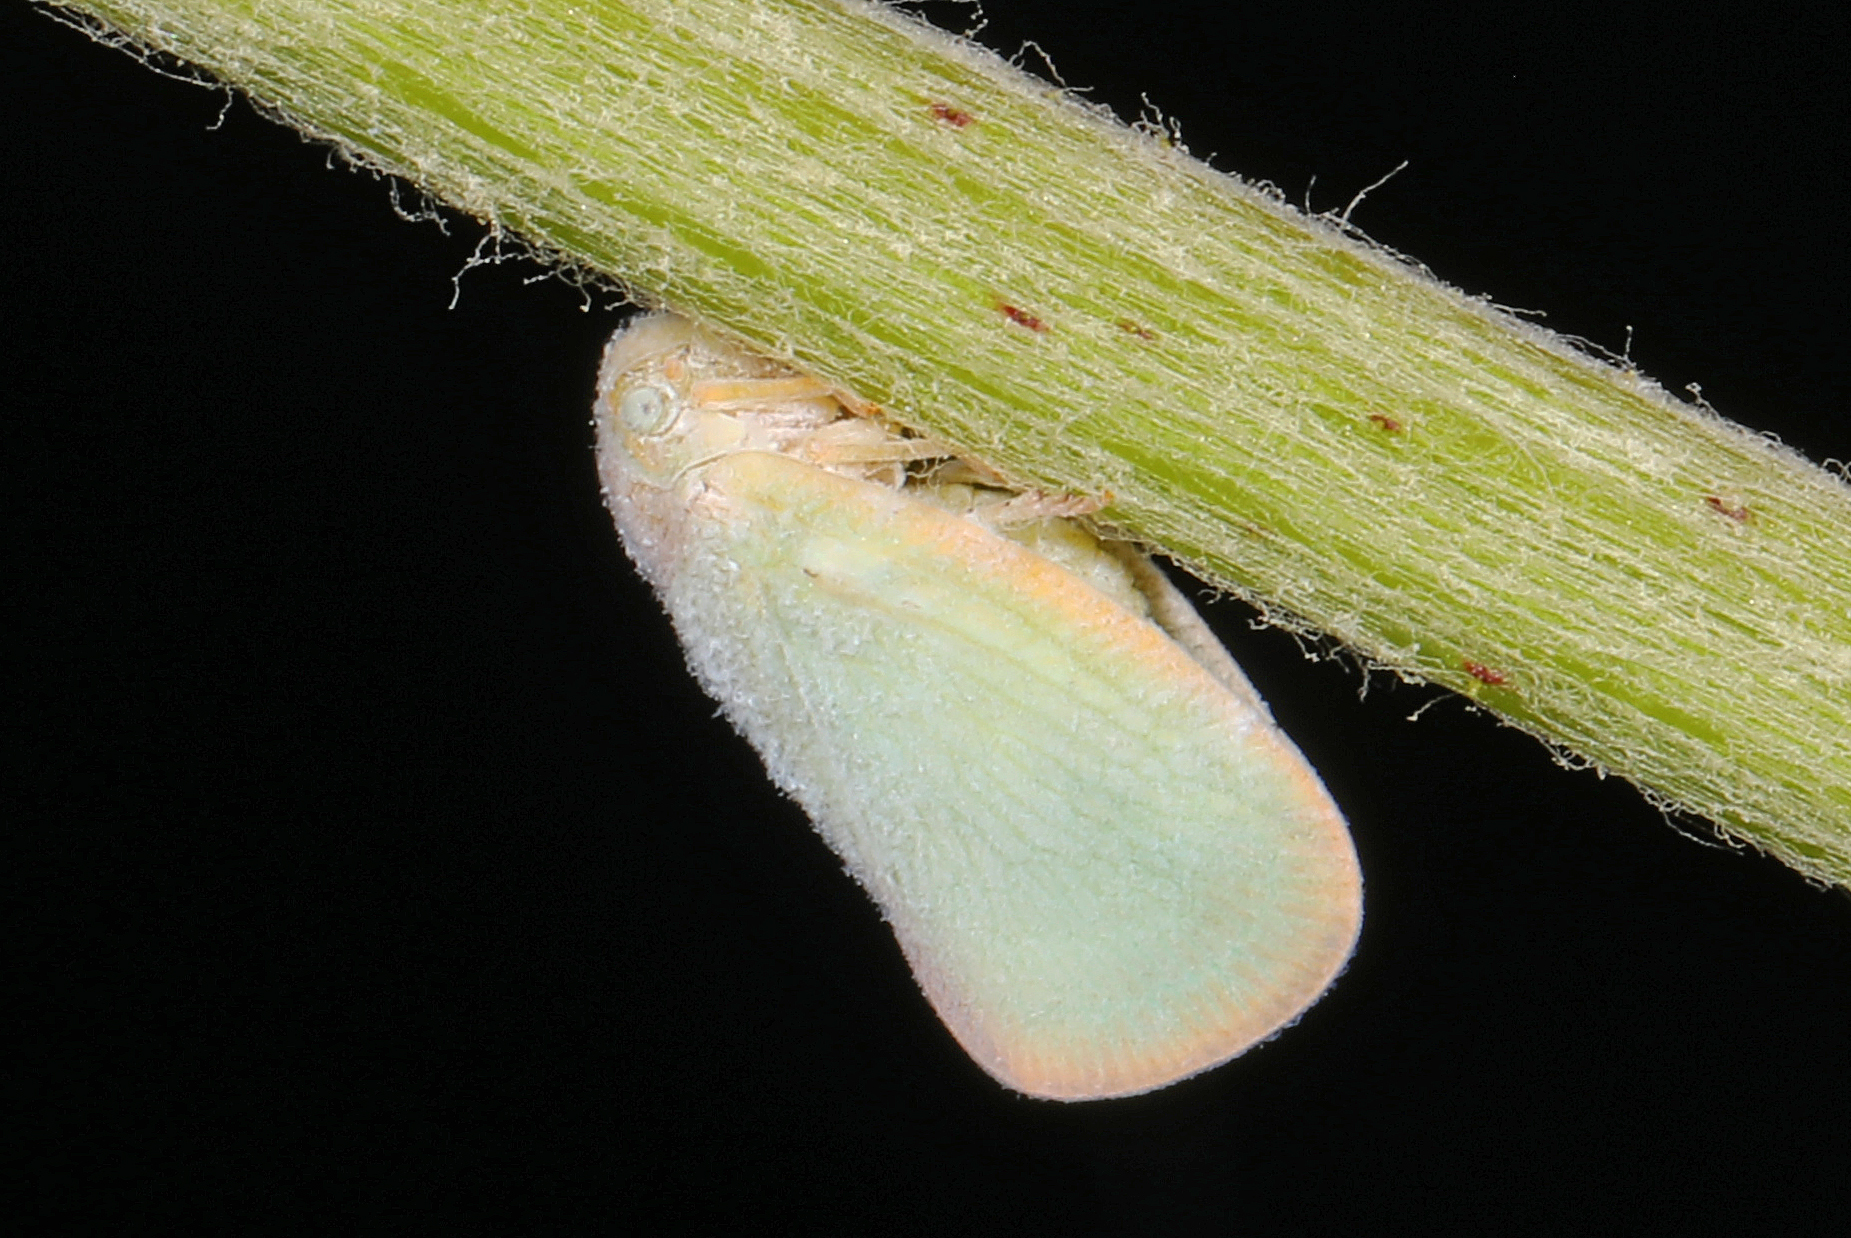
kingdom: Animalia
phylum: Arthropoda
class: Insecta
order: Hemiptera
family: Flatidae
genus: Ormenoides
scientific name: Ormenoides venusta
